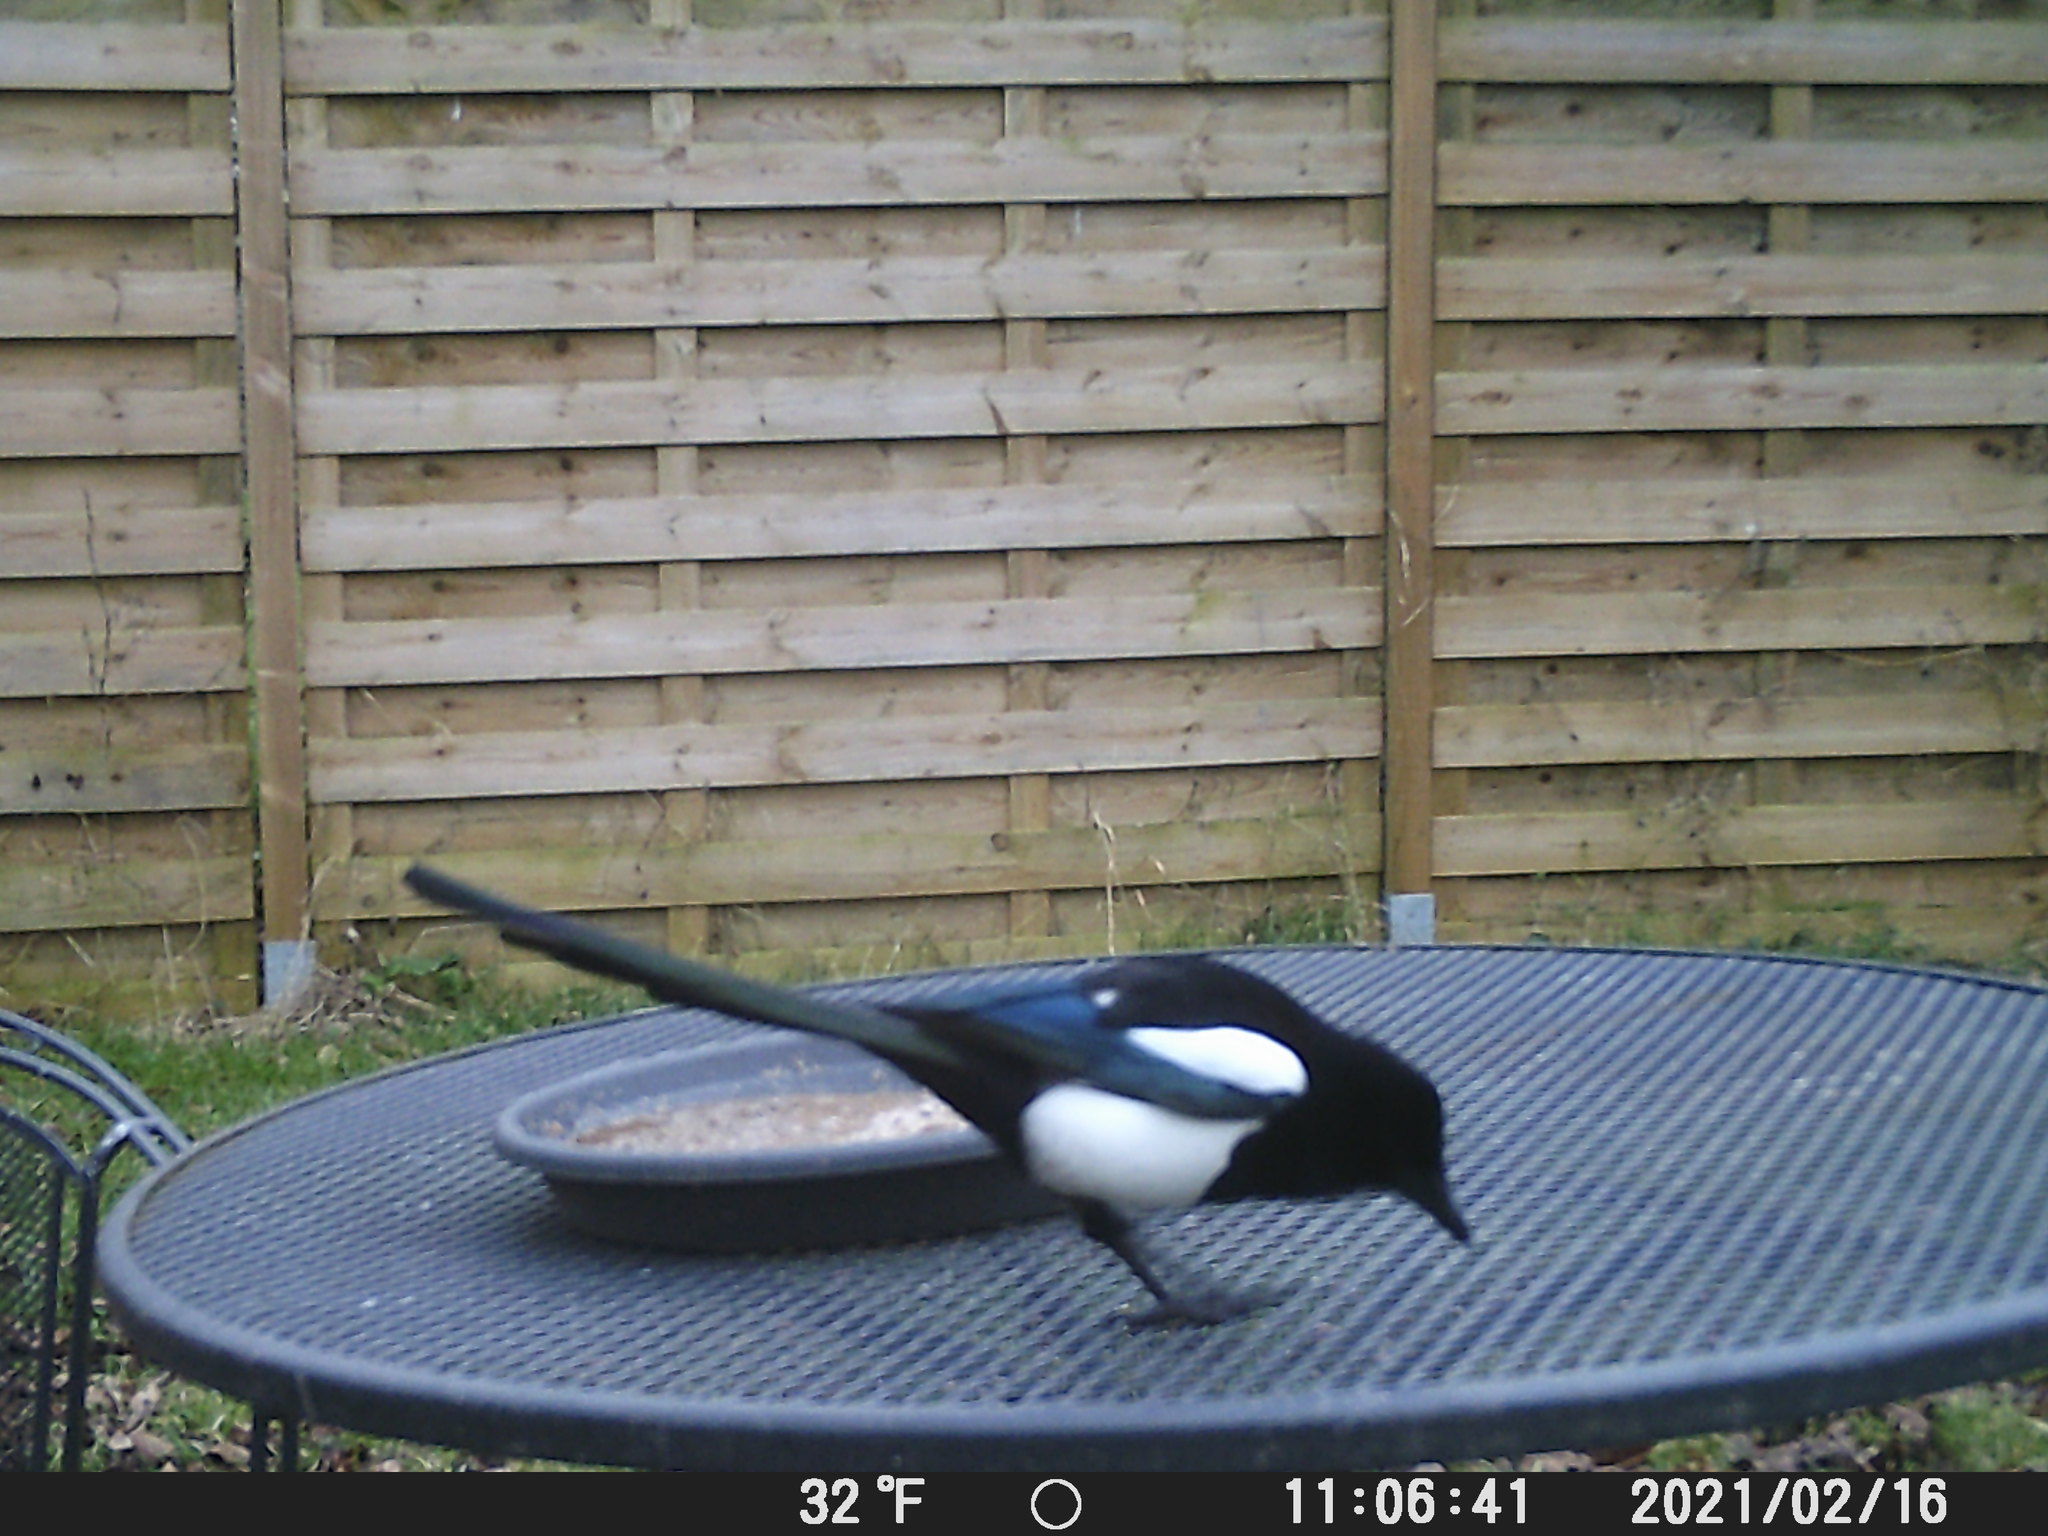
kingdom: Animalia
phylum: Chordata
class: Aves
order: Passeriformes
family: Corvidae
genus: Pica
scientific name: Pica pica
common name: Eurasian magpie
